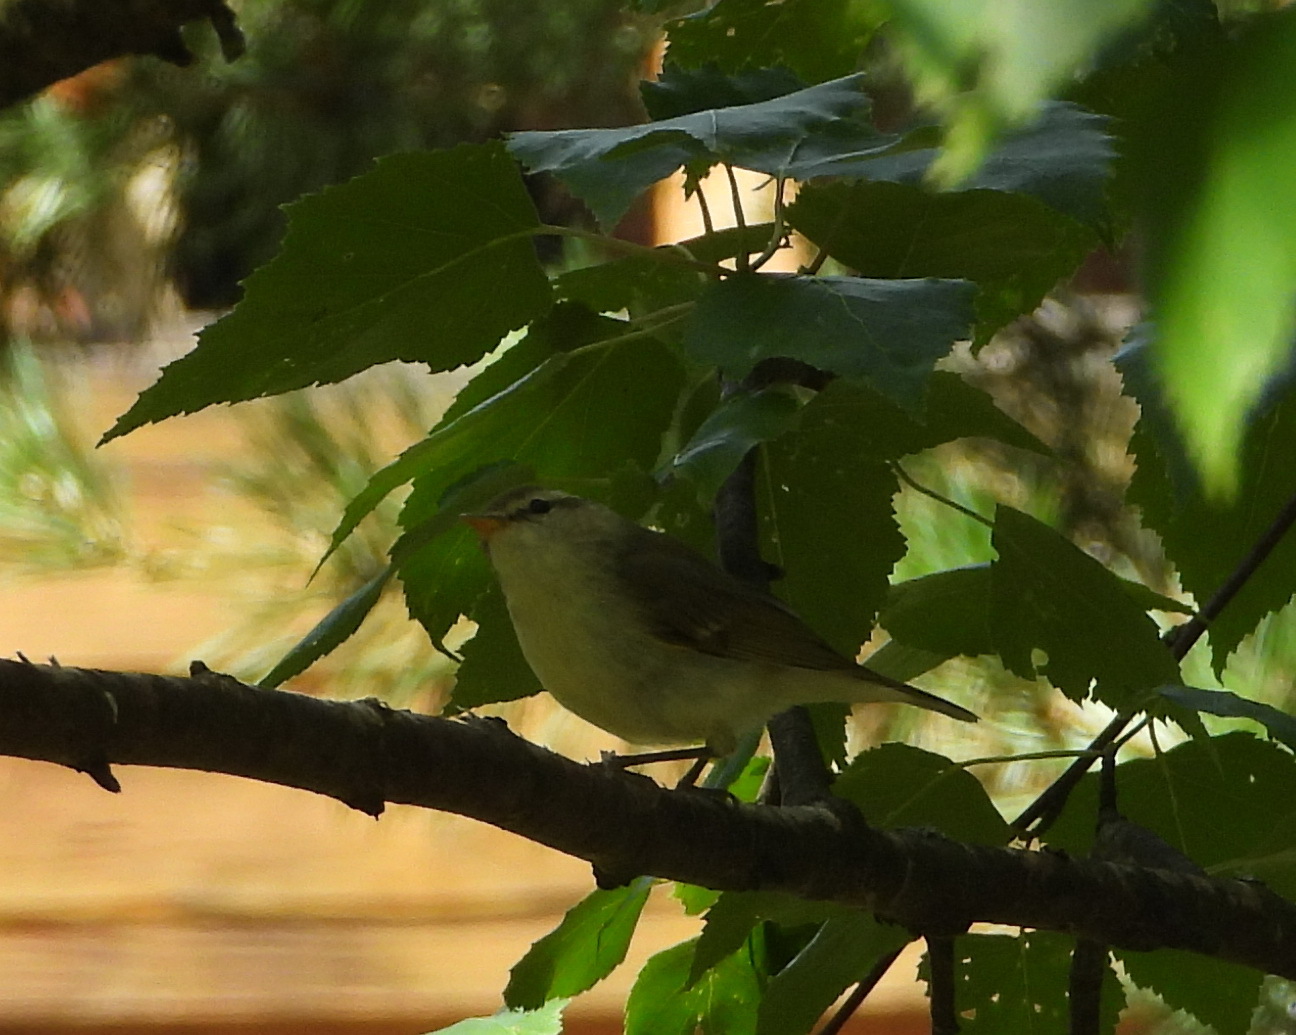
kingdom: Animalia
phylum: Chordata
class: Aves
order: Passeriformes
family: Phylloscopidae
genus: Phylloscopus
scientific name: Phylloscopus trochiloides
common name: Greenish warbler
